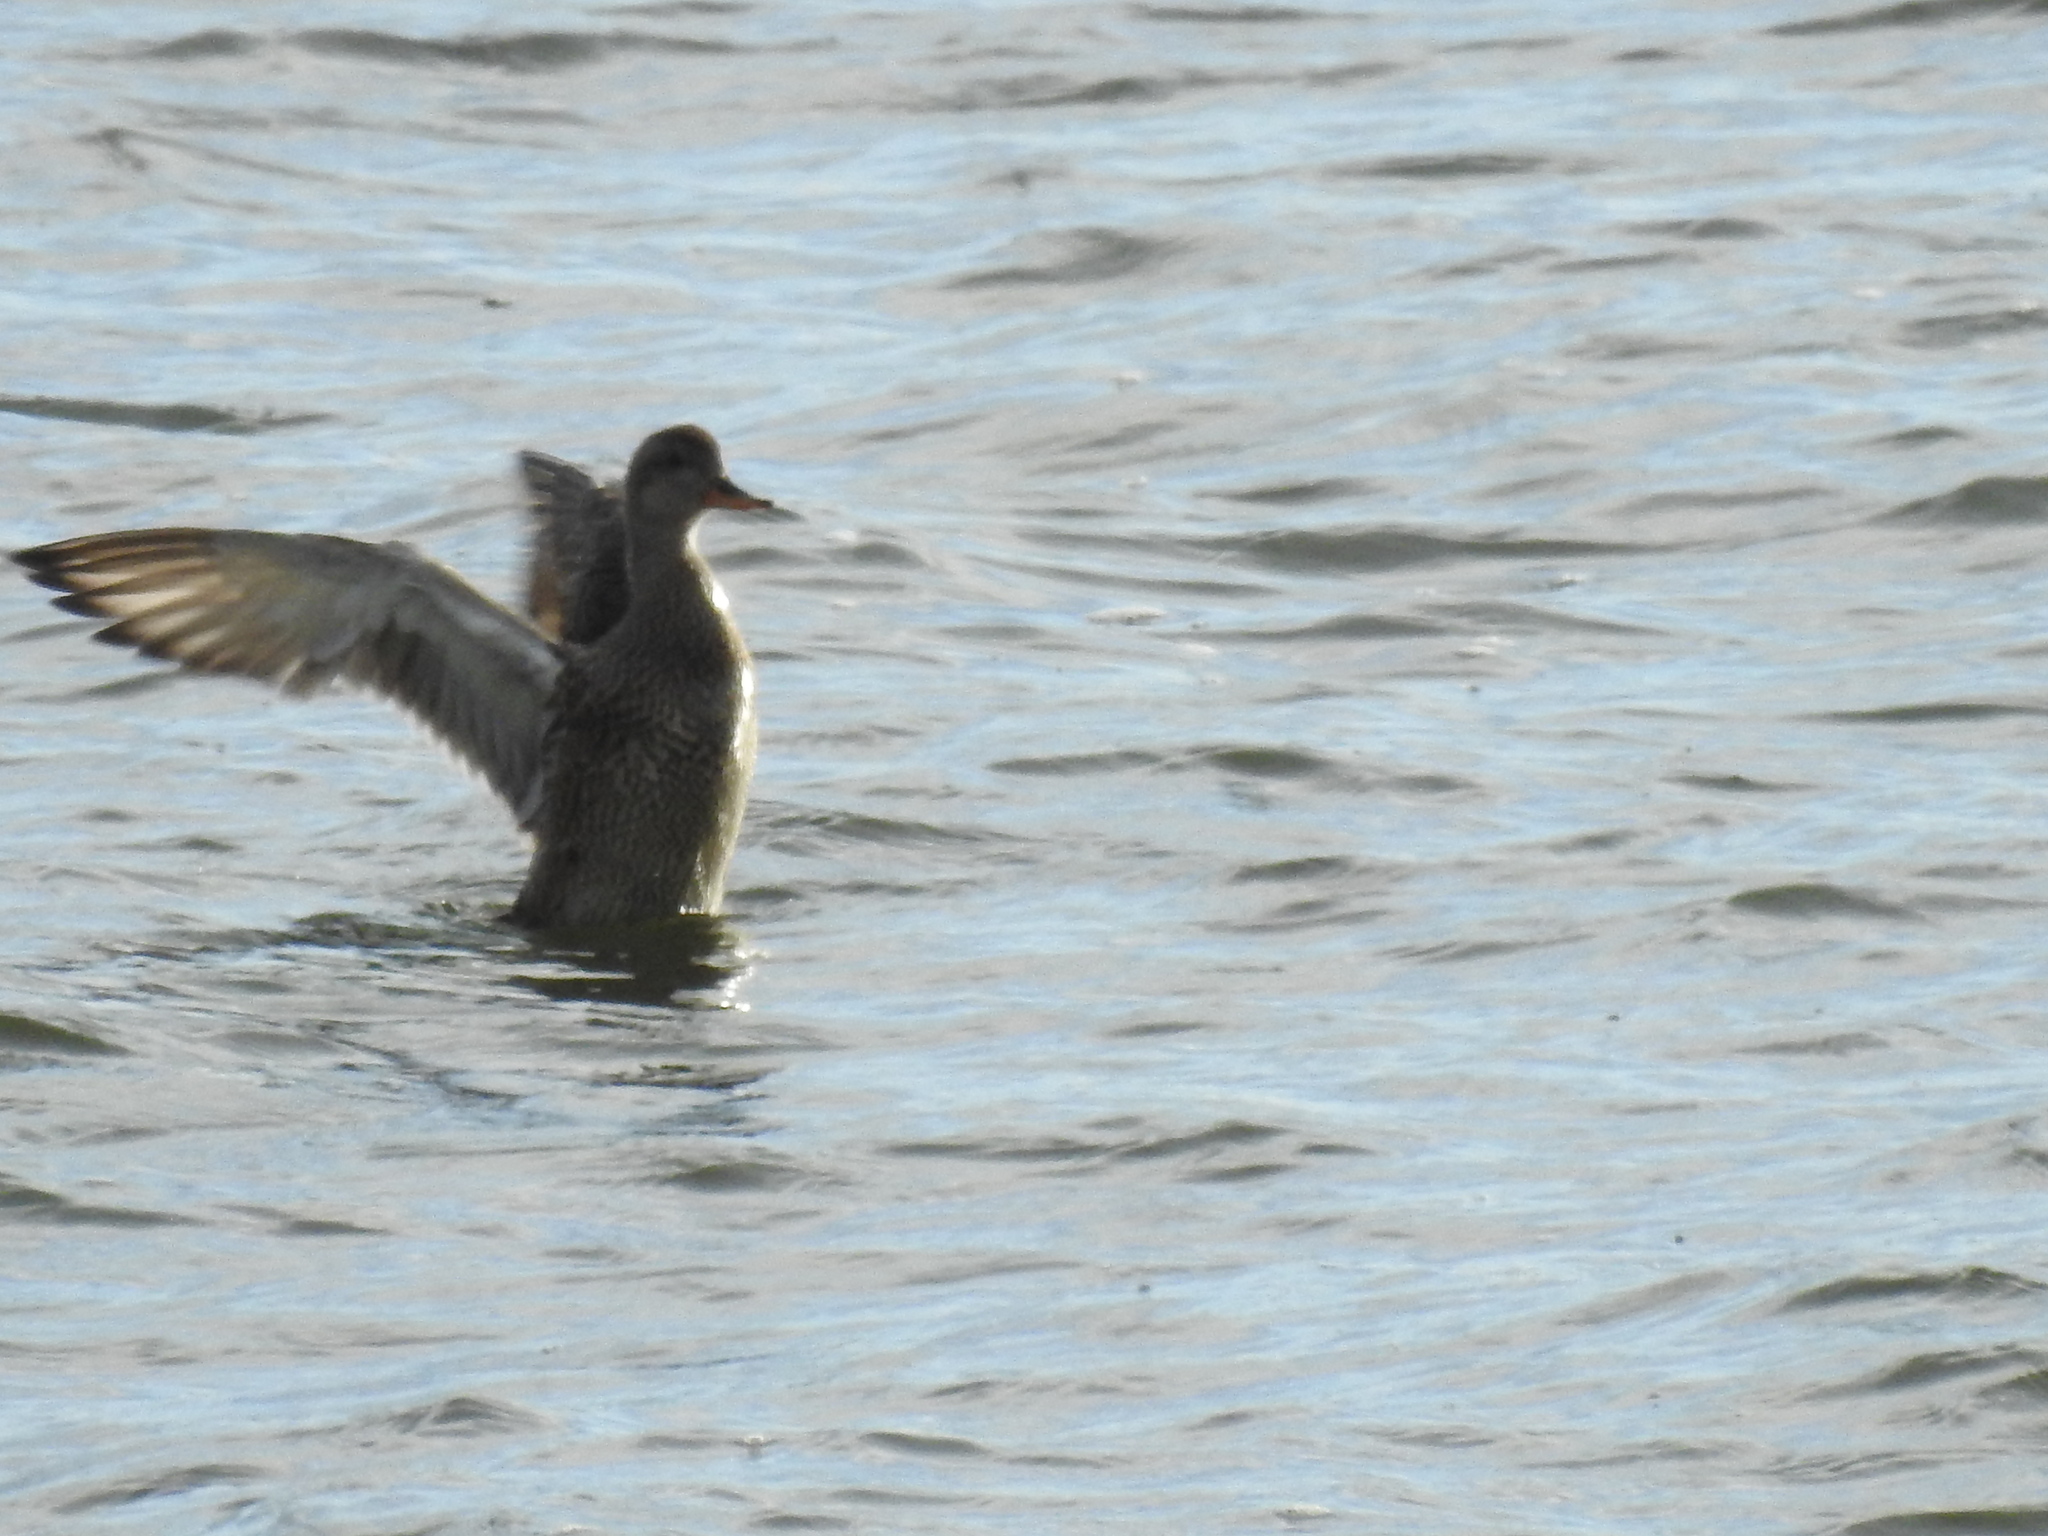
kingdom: Animalia
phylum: Chordata
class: Aves
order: Anseriformes
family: Anatidae
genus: Mareca
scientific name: Mareca strepera
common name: Gadwall
